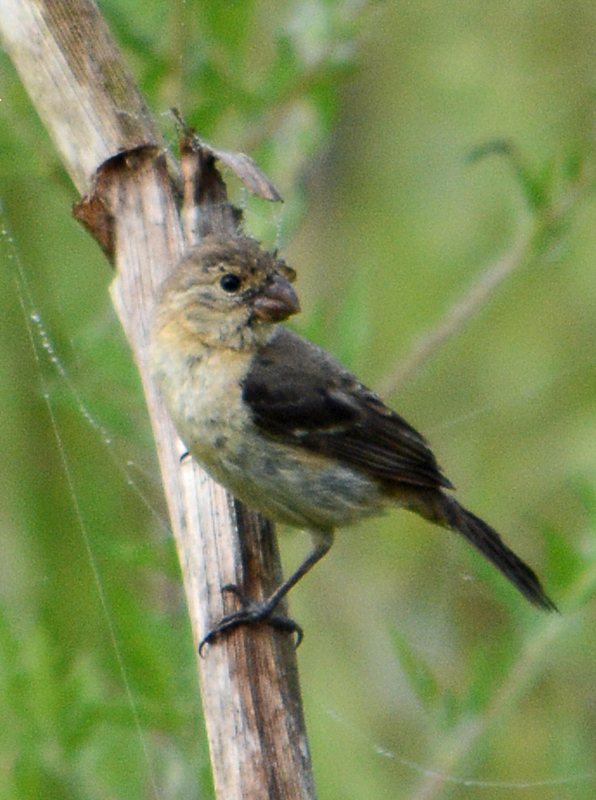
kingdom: Animalia
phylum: Chordata
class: Aves
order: Passeriformes
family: Thraupidae
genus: Sporophila
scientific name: Sporophila morelleti
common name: Morelet's seedeater
